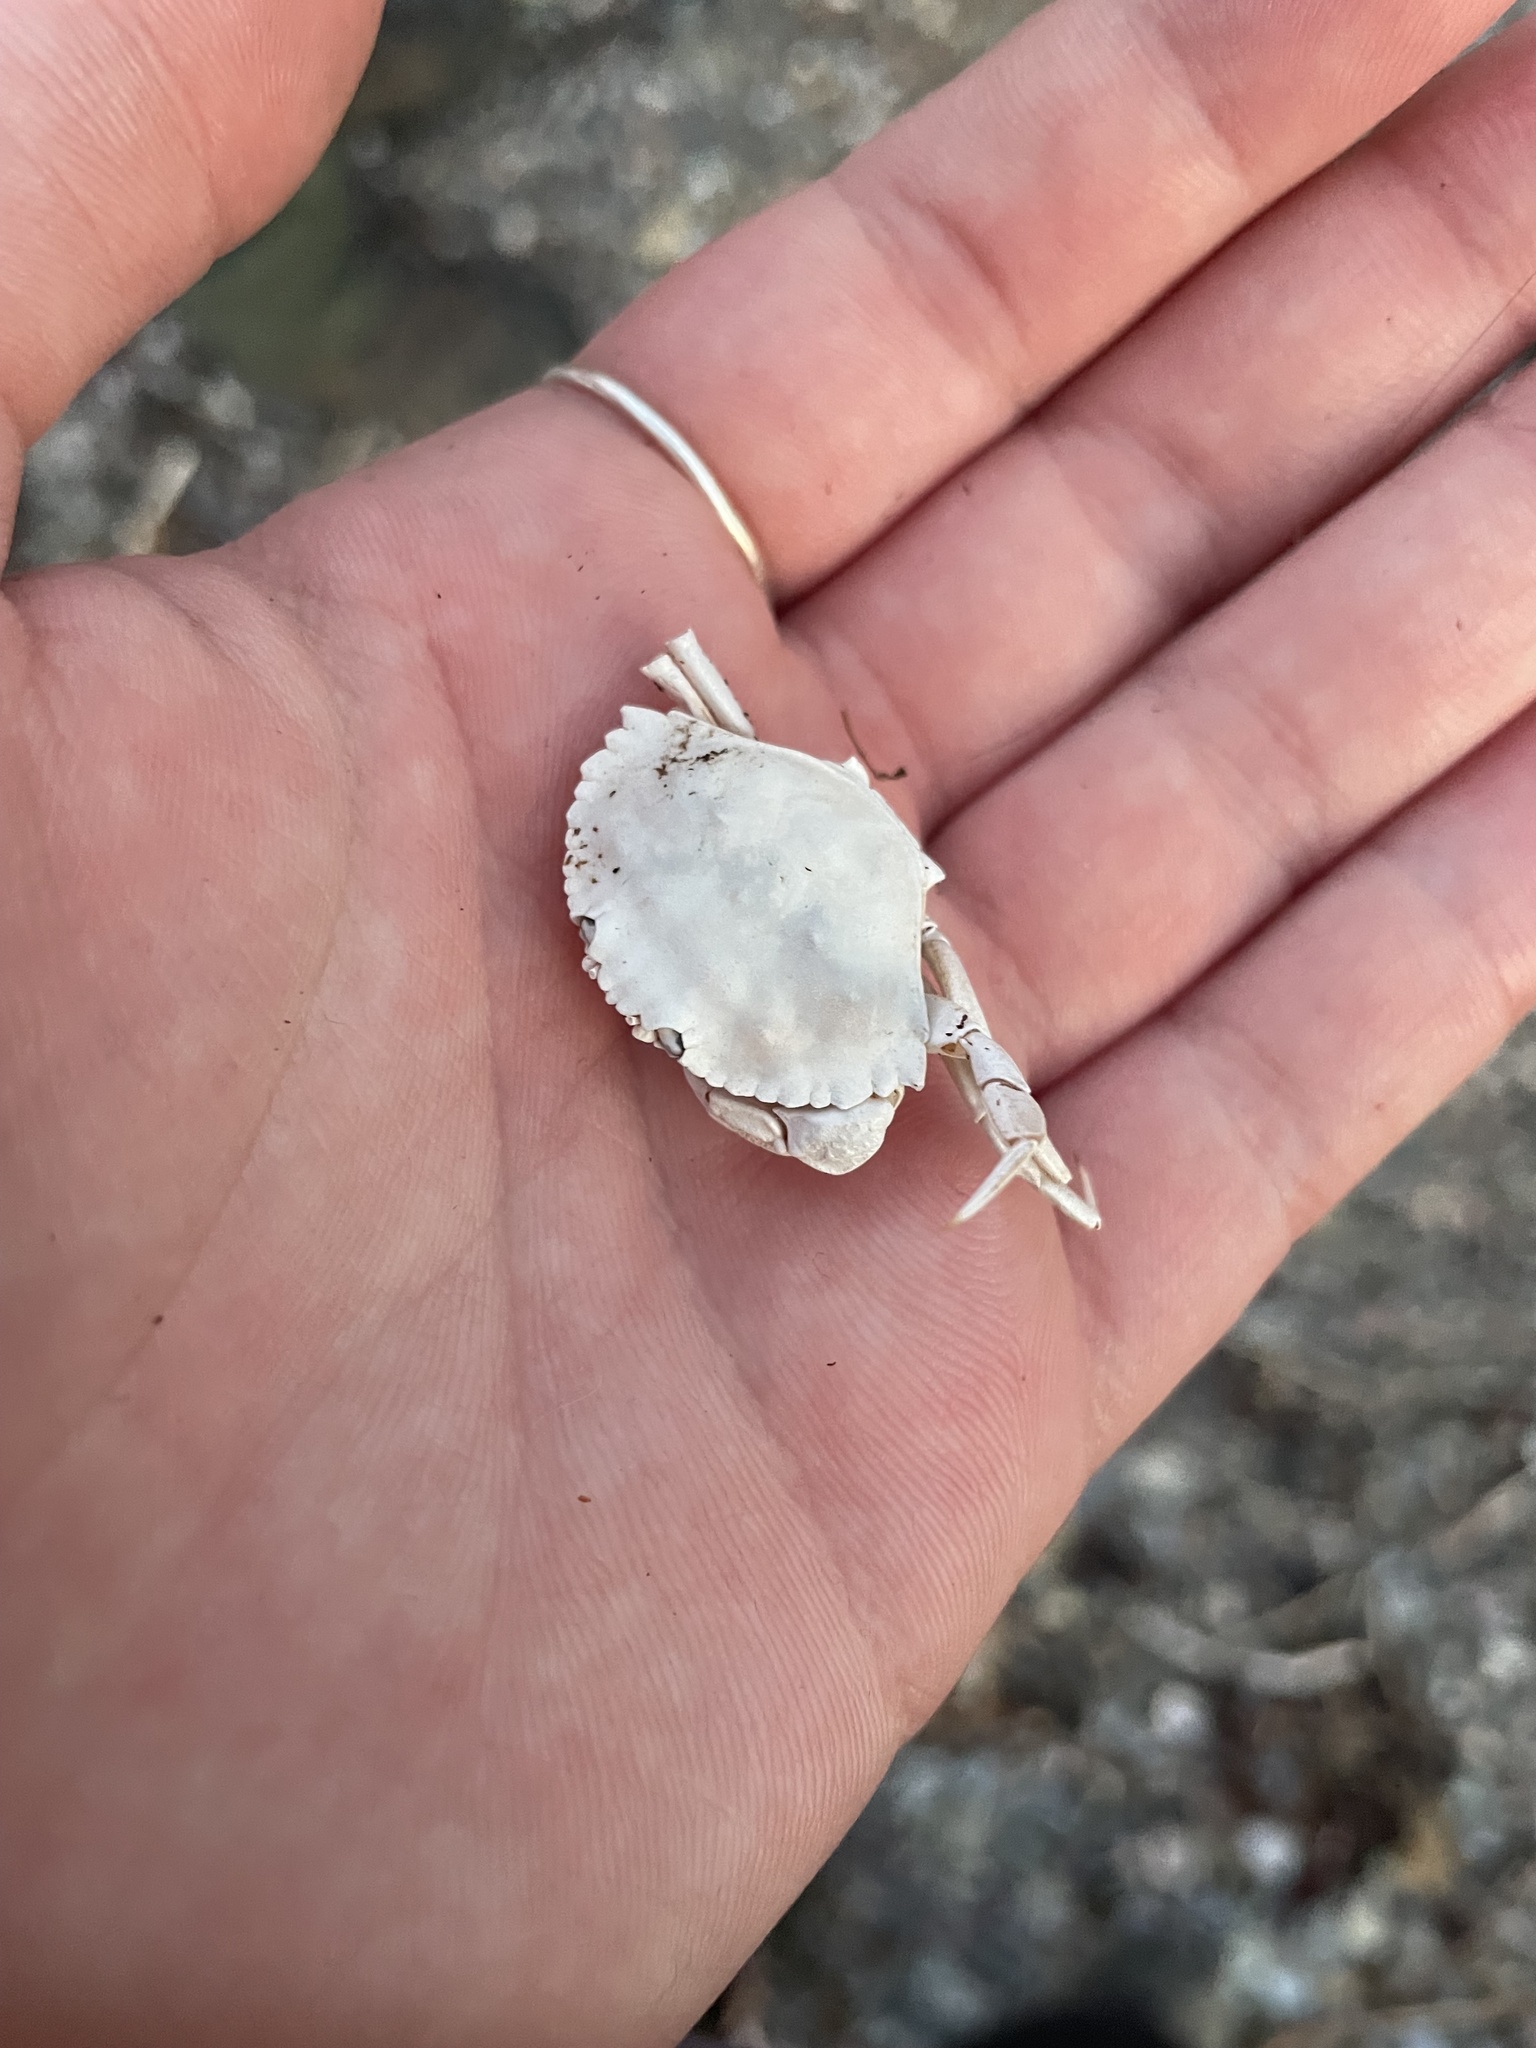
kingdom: Animalia
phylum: Arthropoda
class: Malacostraca
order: Decapoda
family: Cancridae
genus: Cancer
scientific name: Cancer irroratus
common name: Atlantic rock crab
